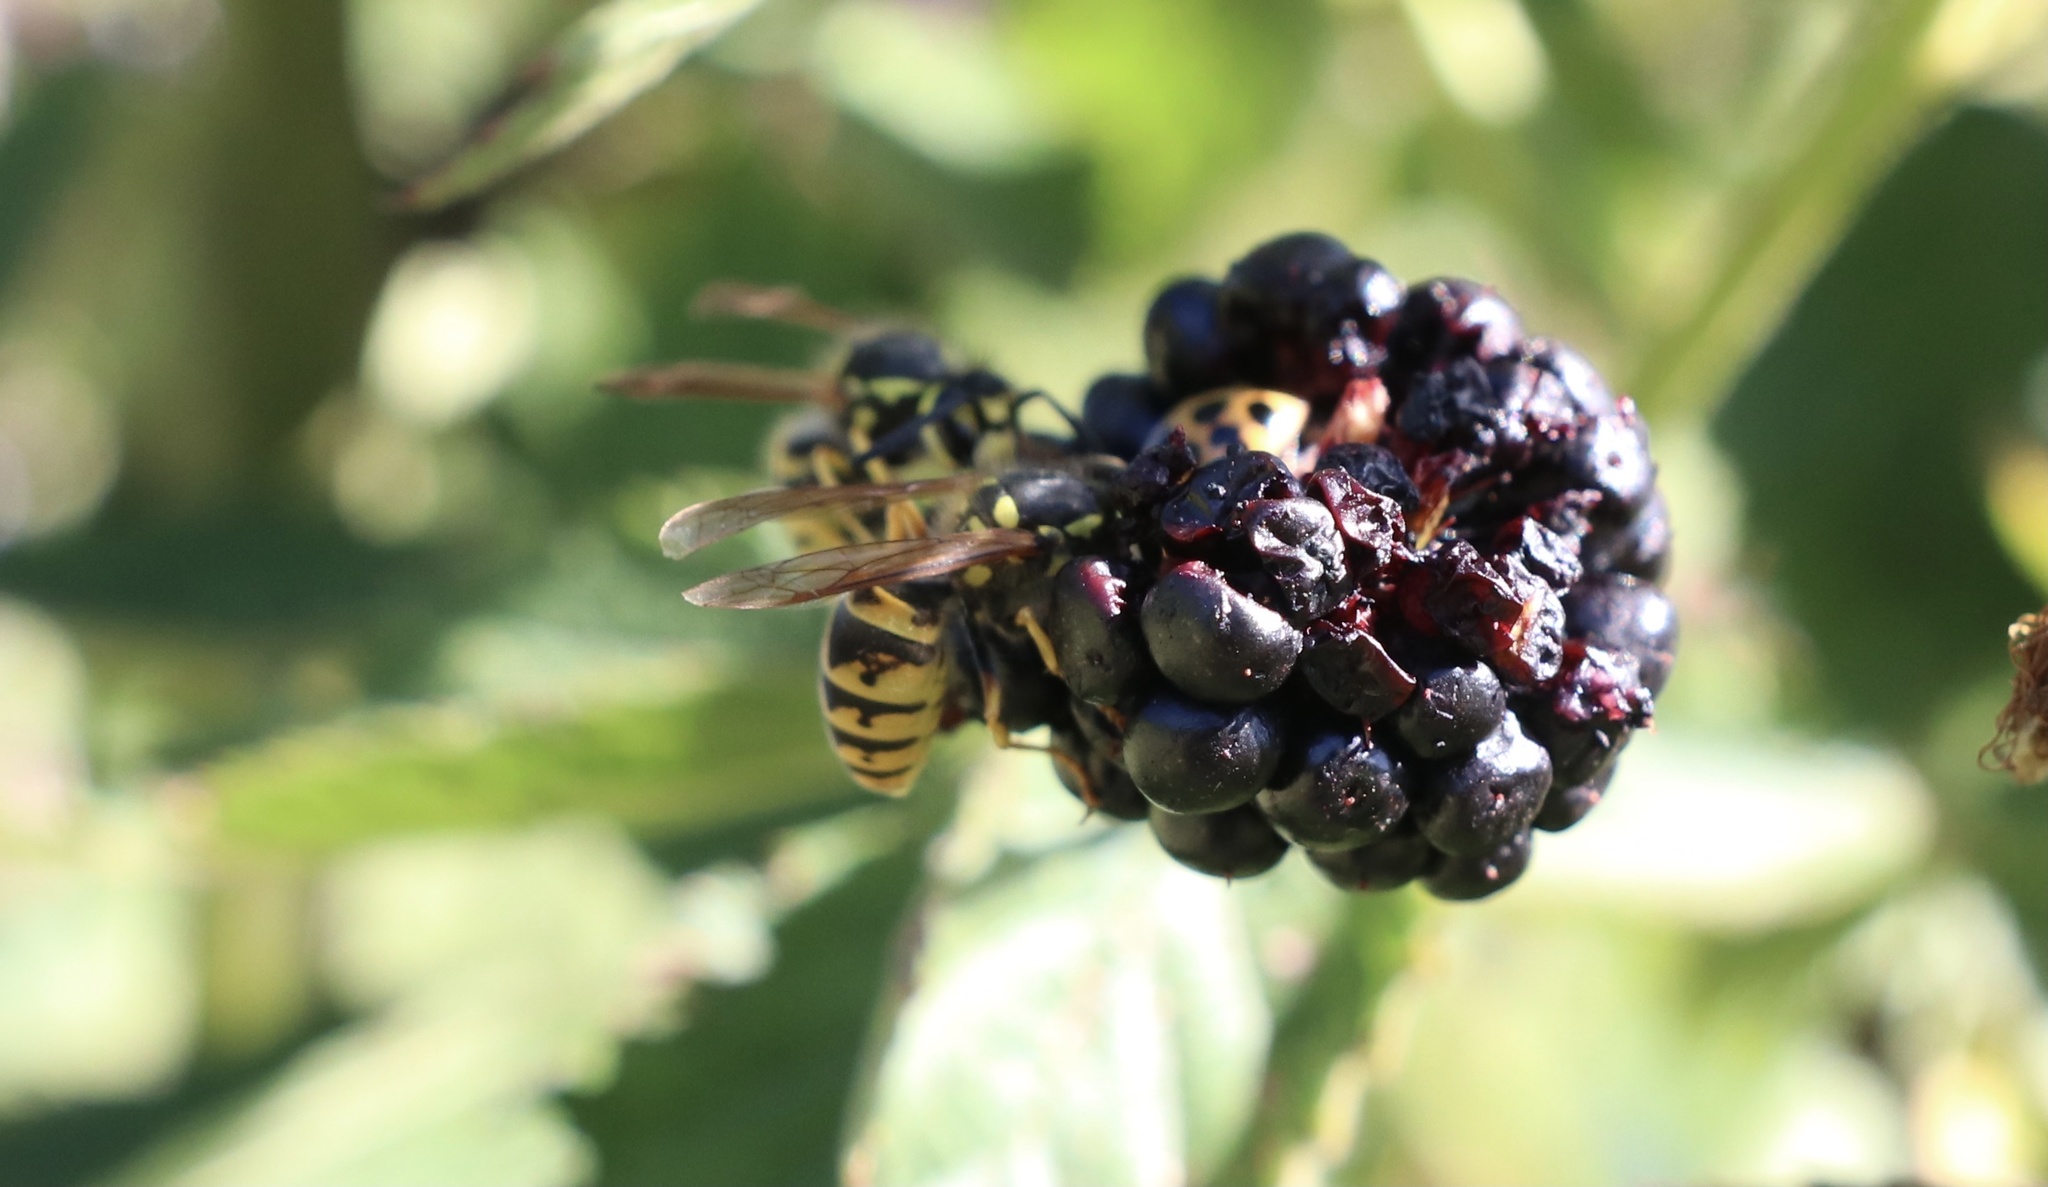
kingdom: Animalia
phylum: Arthropoda
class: Insecta
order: Hymenoptera
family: Vespidae
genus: Vespula
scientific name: Vespula germanica
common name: German wasp
